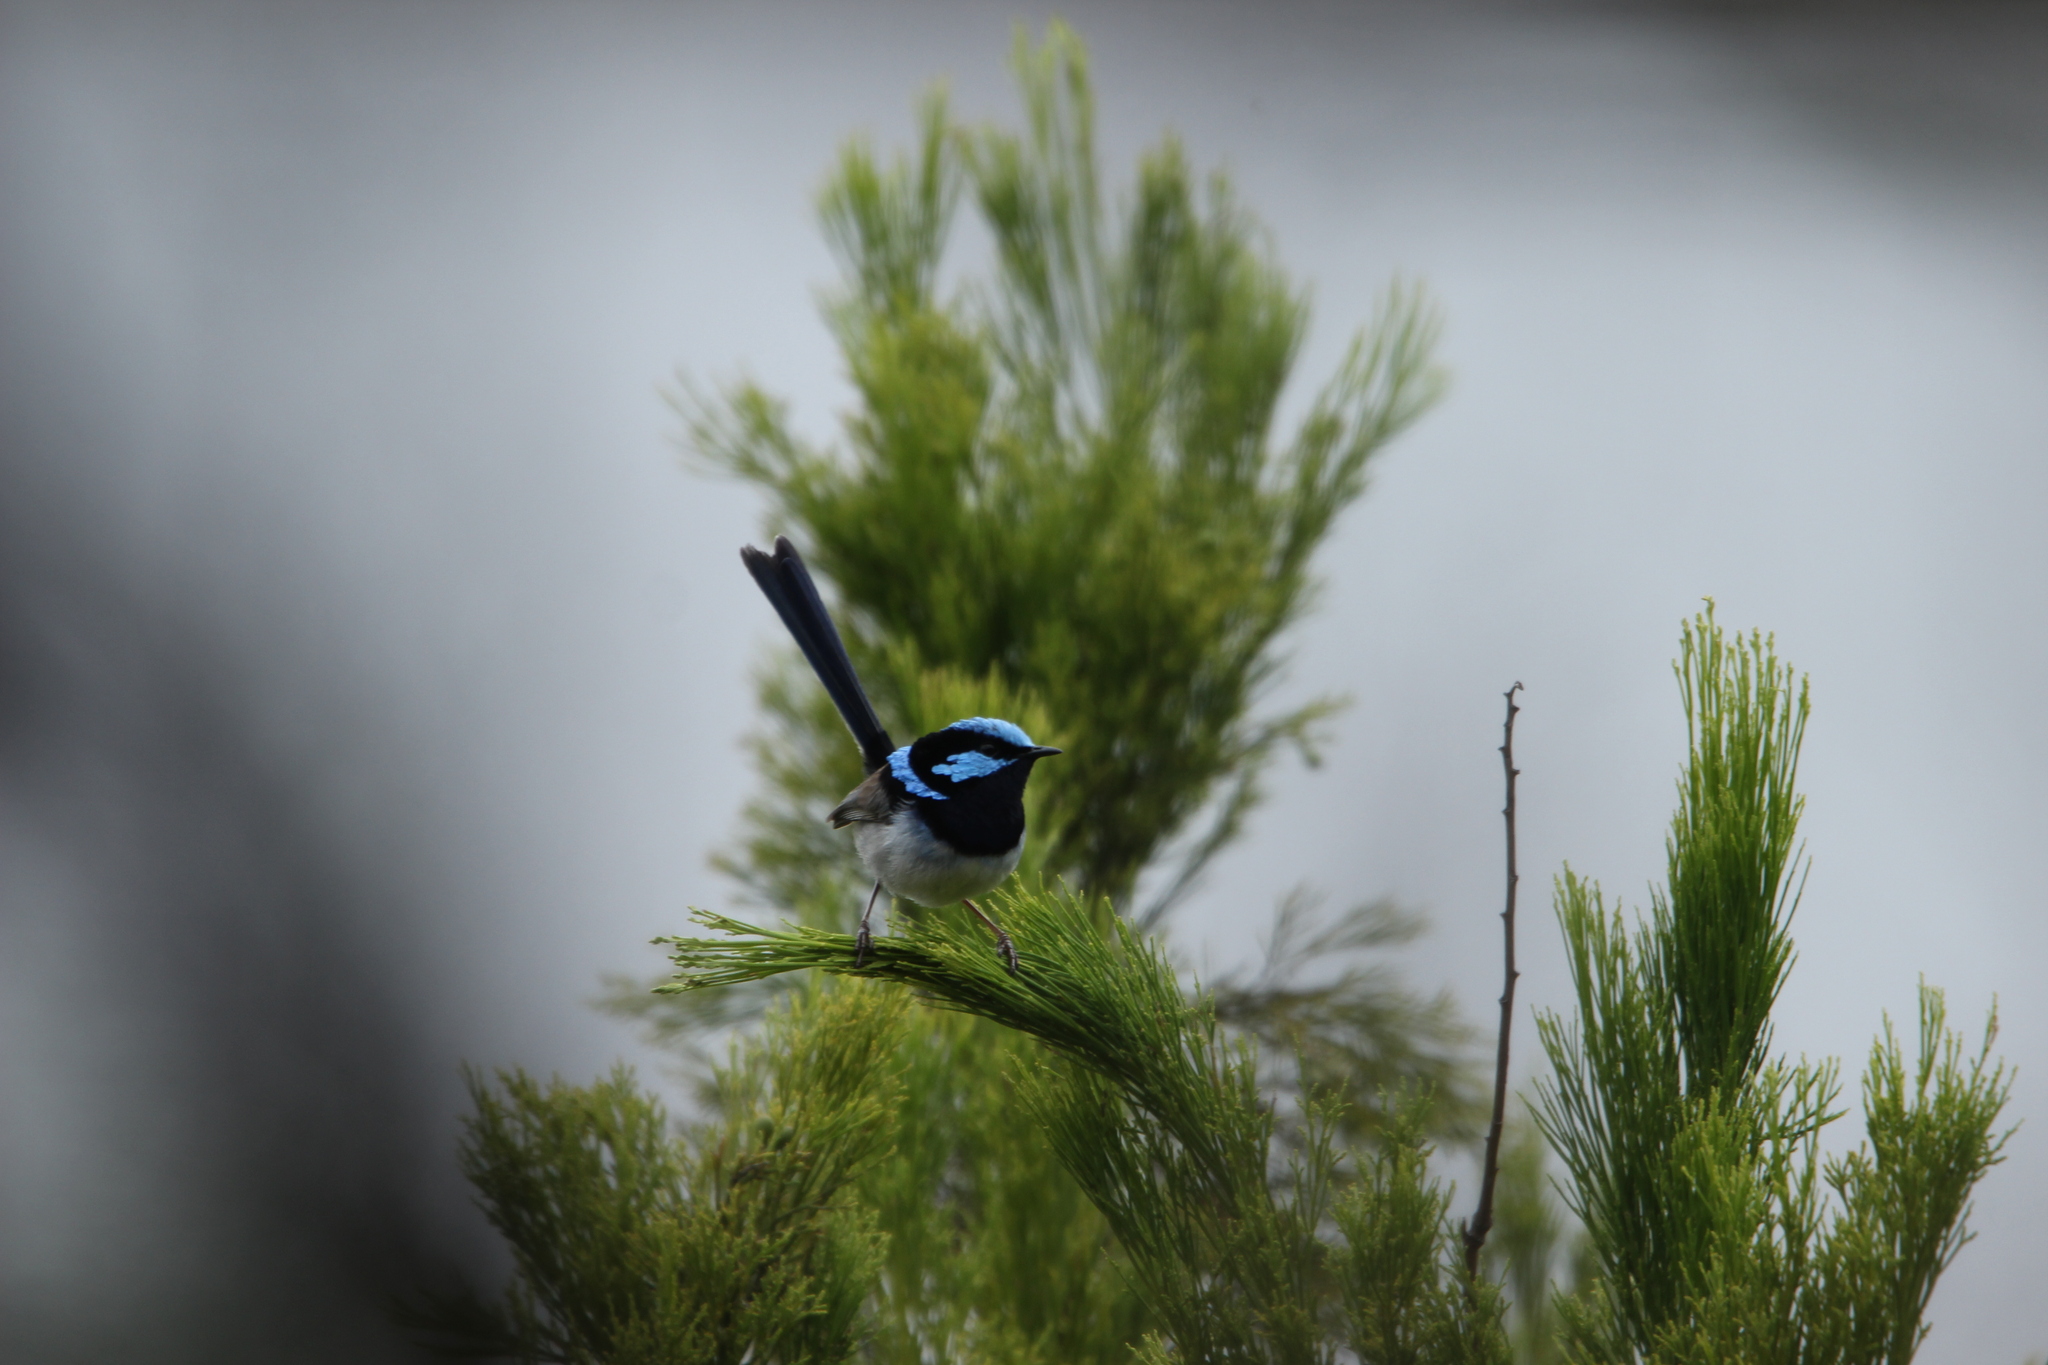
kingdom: Animalia
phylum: Chordata
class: Aves
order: Passeriformes
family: Maluridae
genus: Malurus
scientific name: Malurus cyaneus
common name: Superb fairywren
